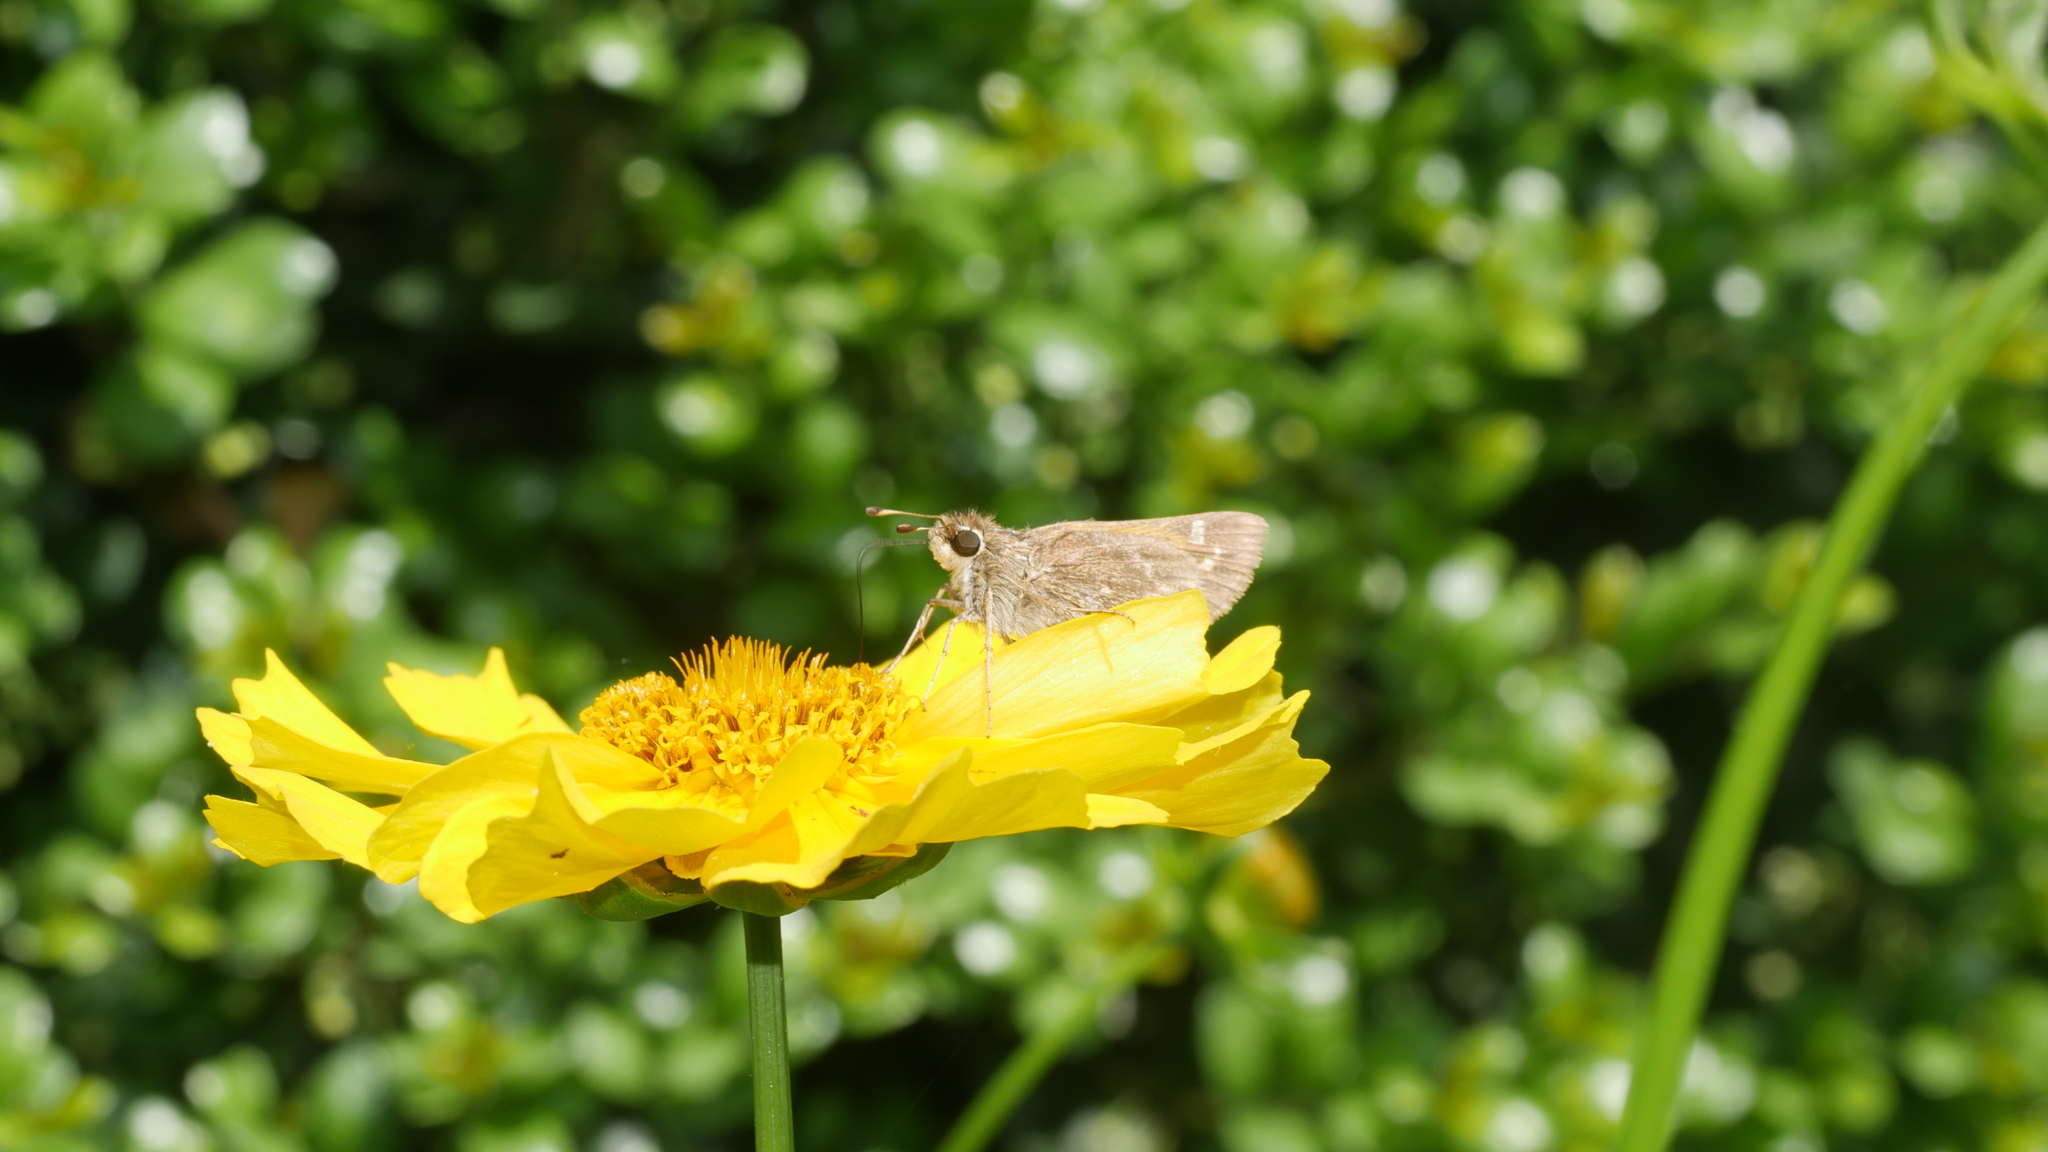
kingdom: Animalia
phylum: Arthropoda
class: Insecta
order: Lepidoptera
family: Hesperiidae
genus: Atalopedes
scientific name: Atalopedes
